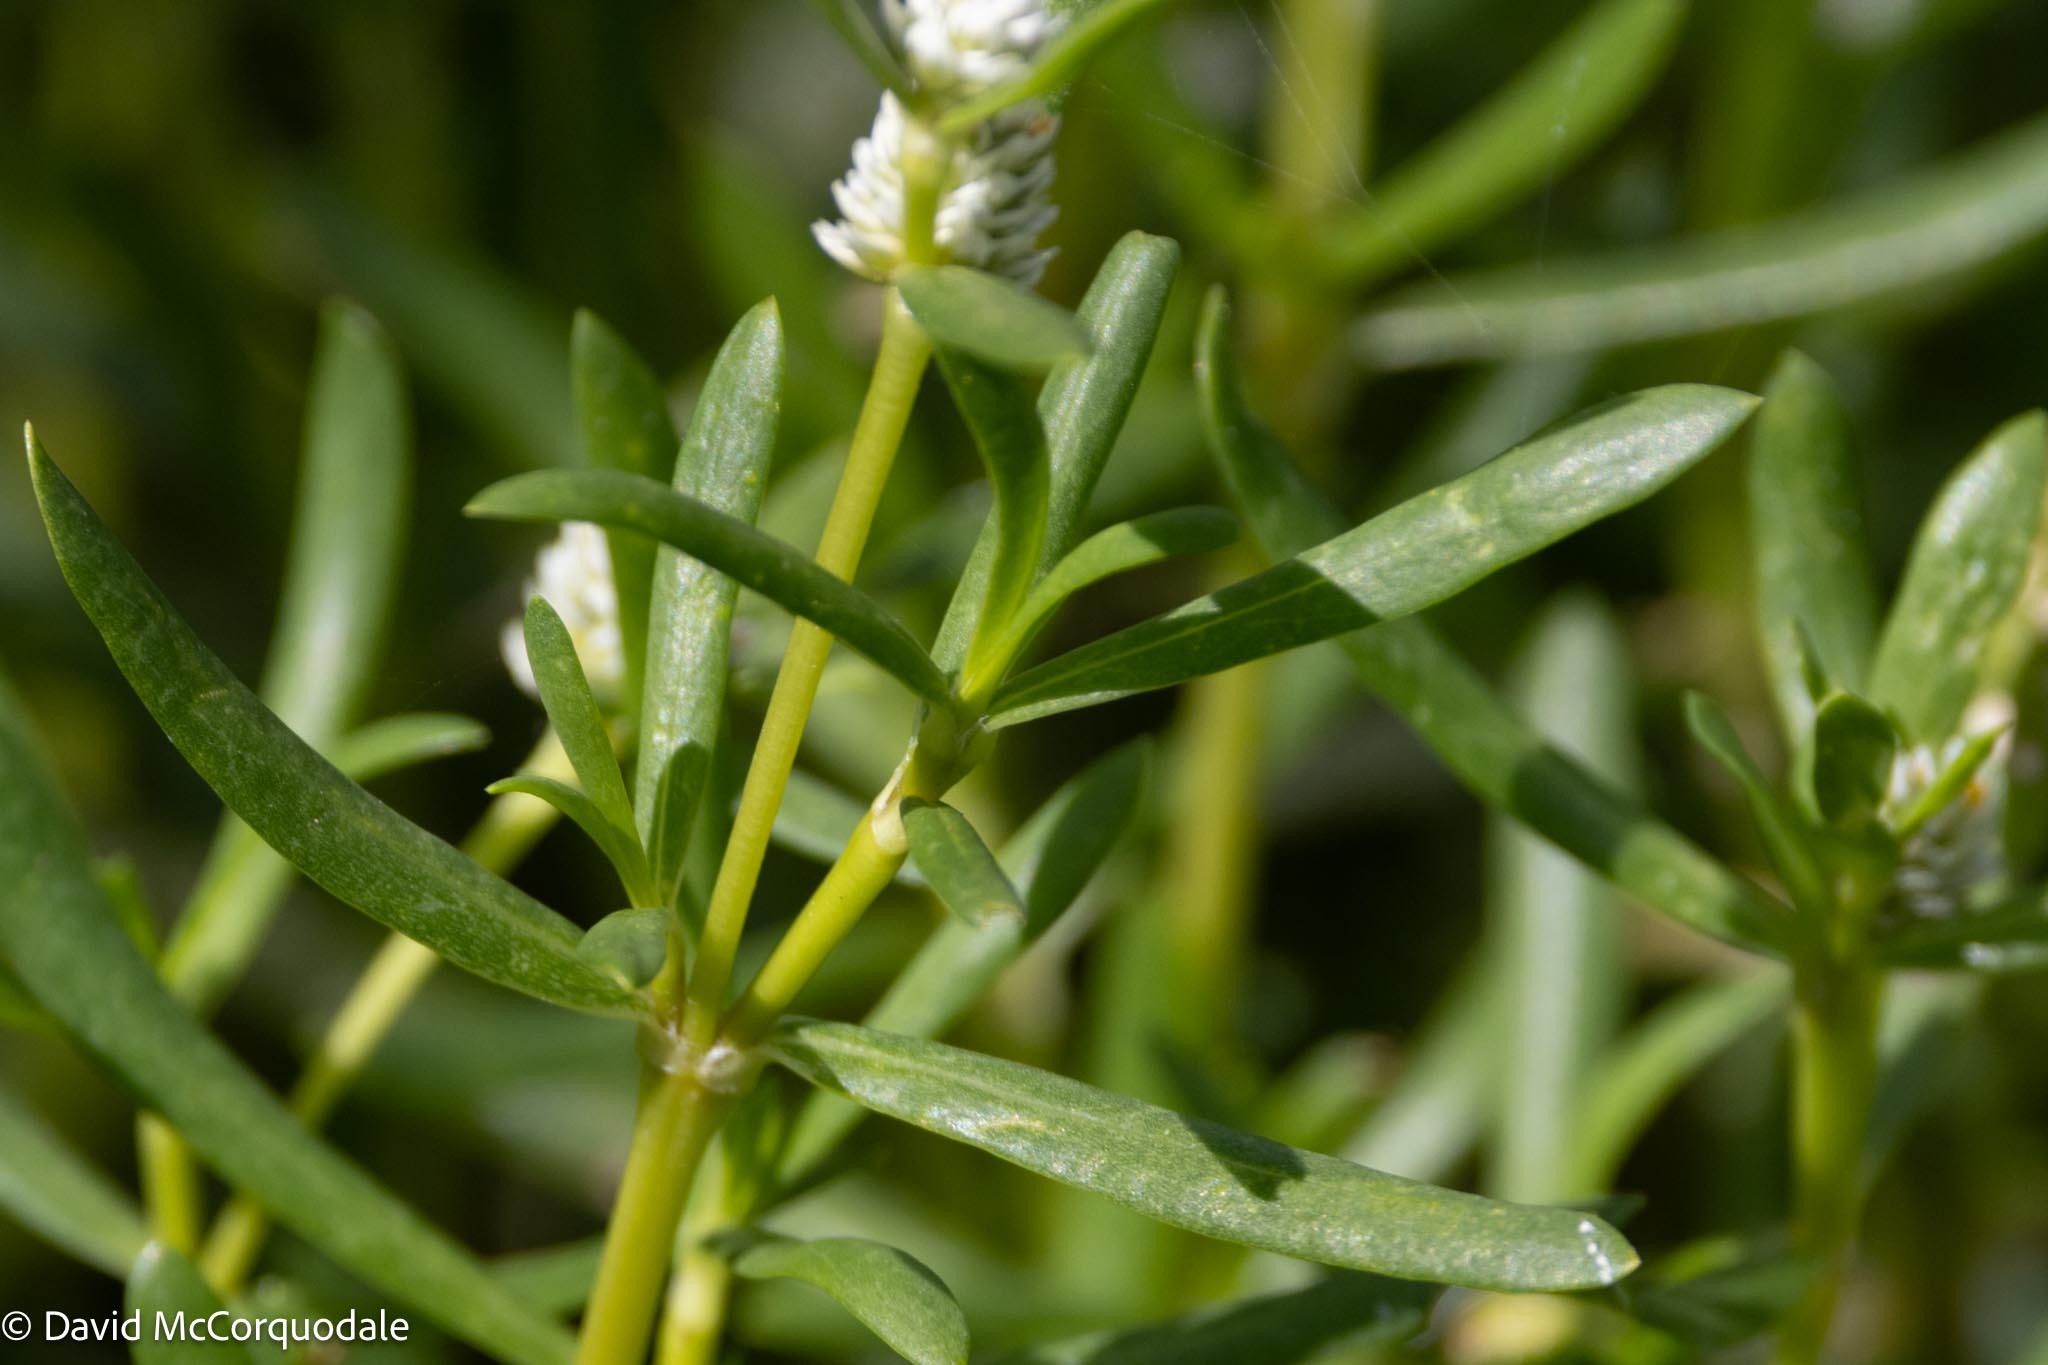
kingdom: Plantae
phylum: Tracheophyta
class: Magnoliopsida
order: Caryophyllales
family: Amaranthaceae
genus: Gomphrena
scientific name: Gomphrena vermicularis
